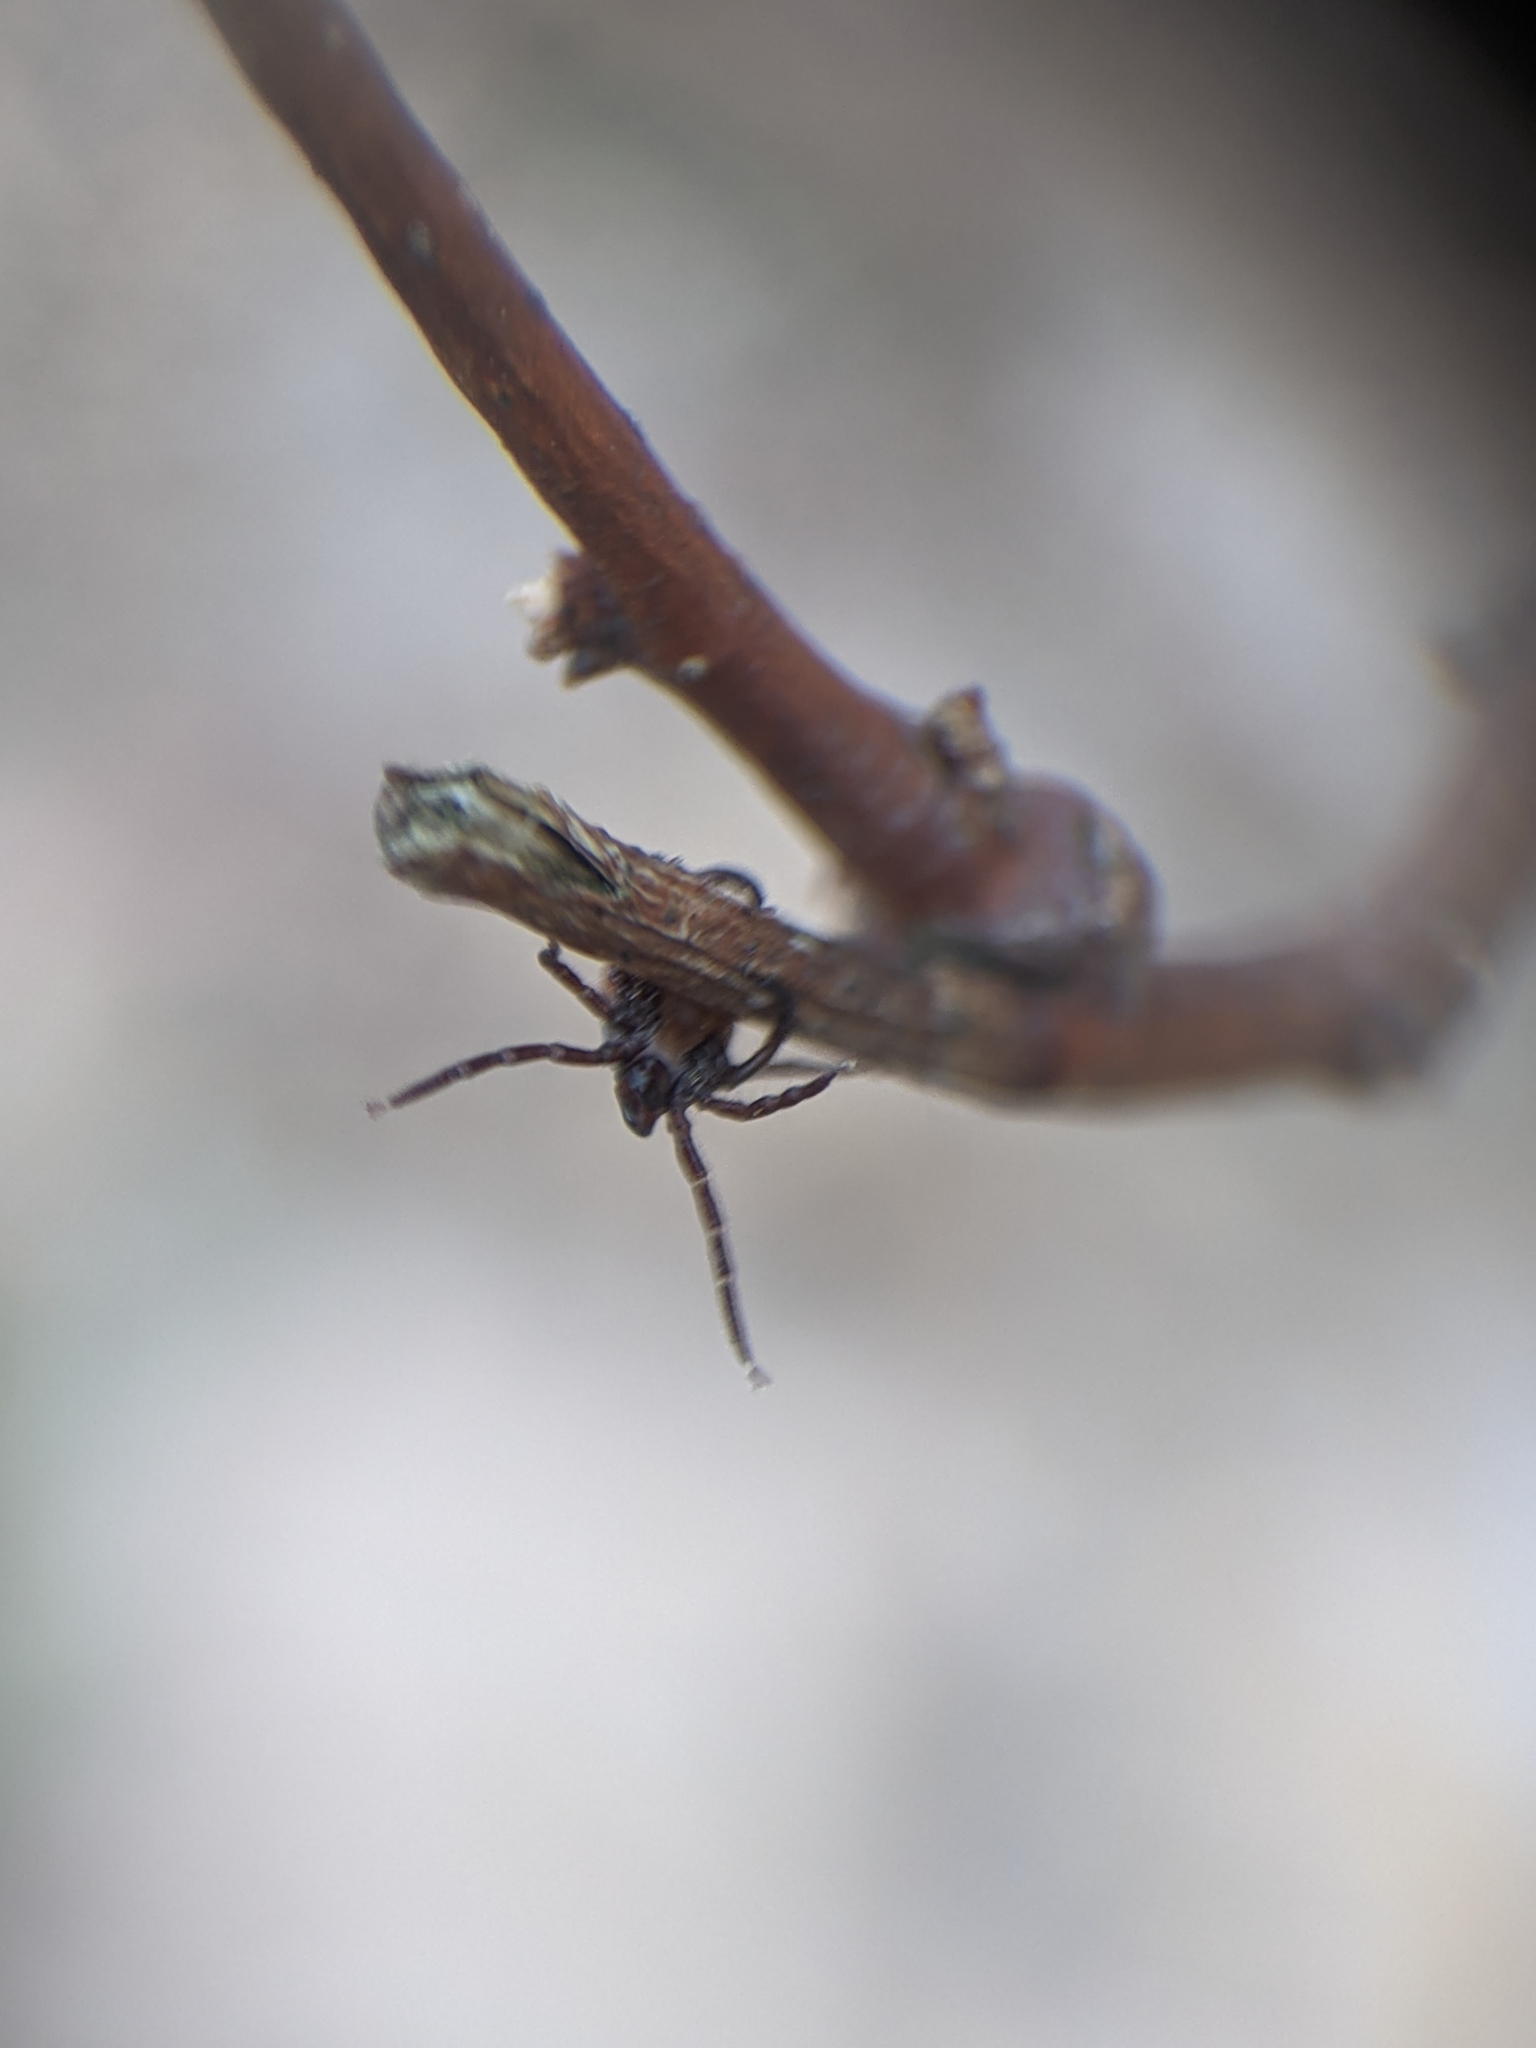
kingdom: Animalia
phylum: Arthropoda
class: Arachnida
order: Ixodida
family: Ixodidae
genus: Ixodes
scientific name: Ixodes scapularis
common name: Black legged tick
